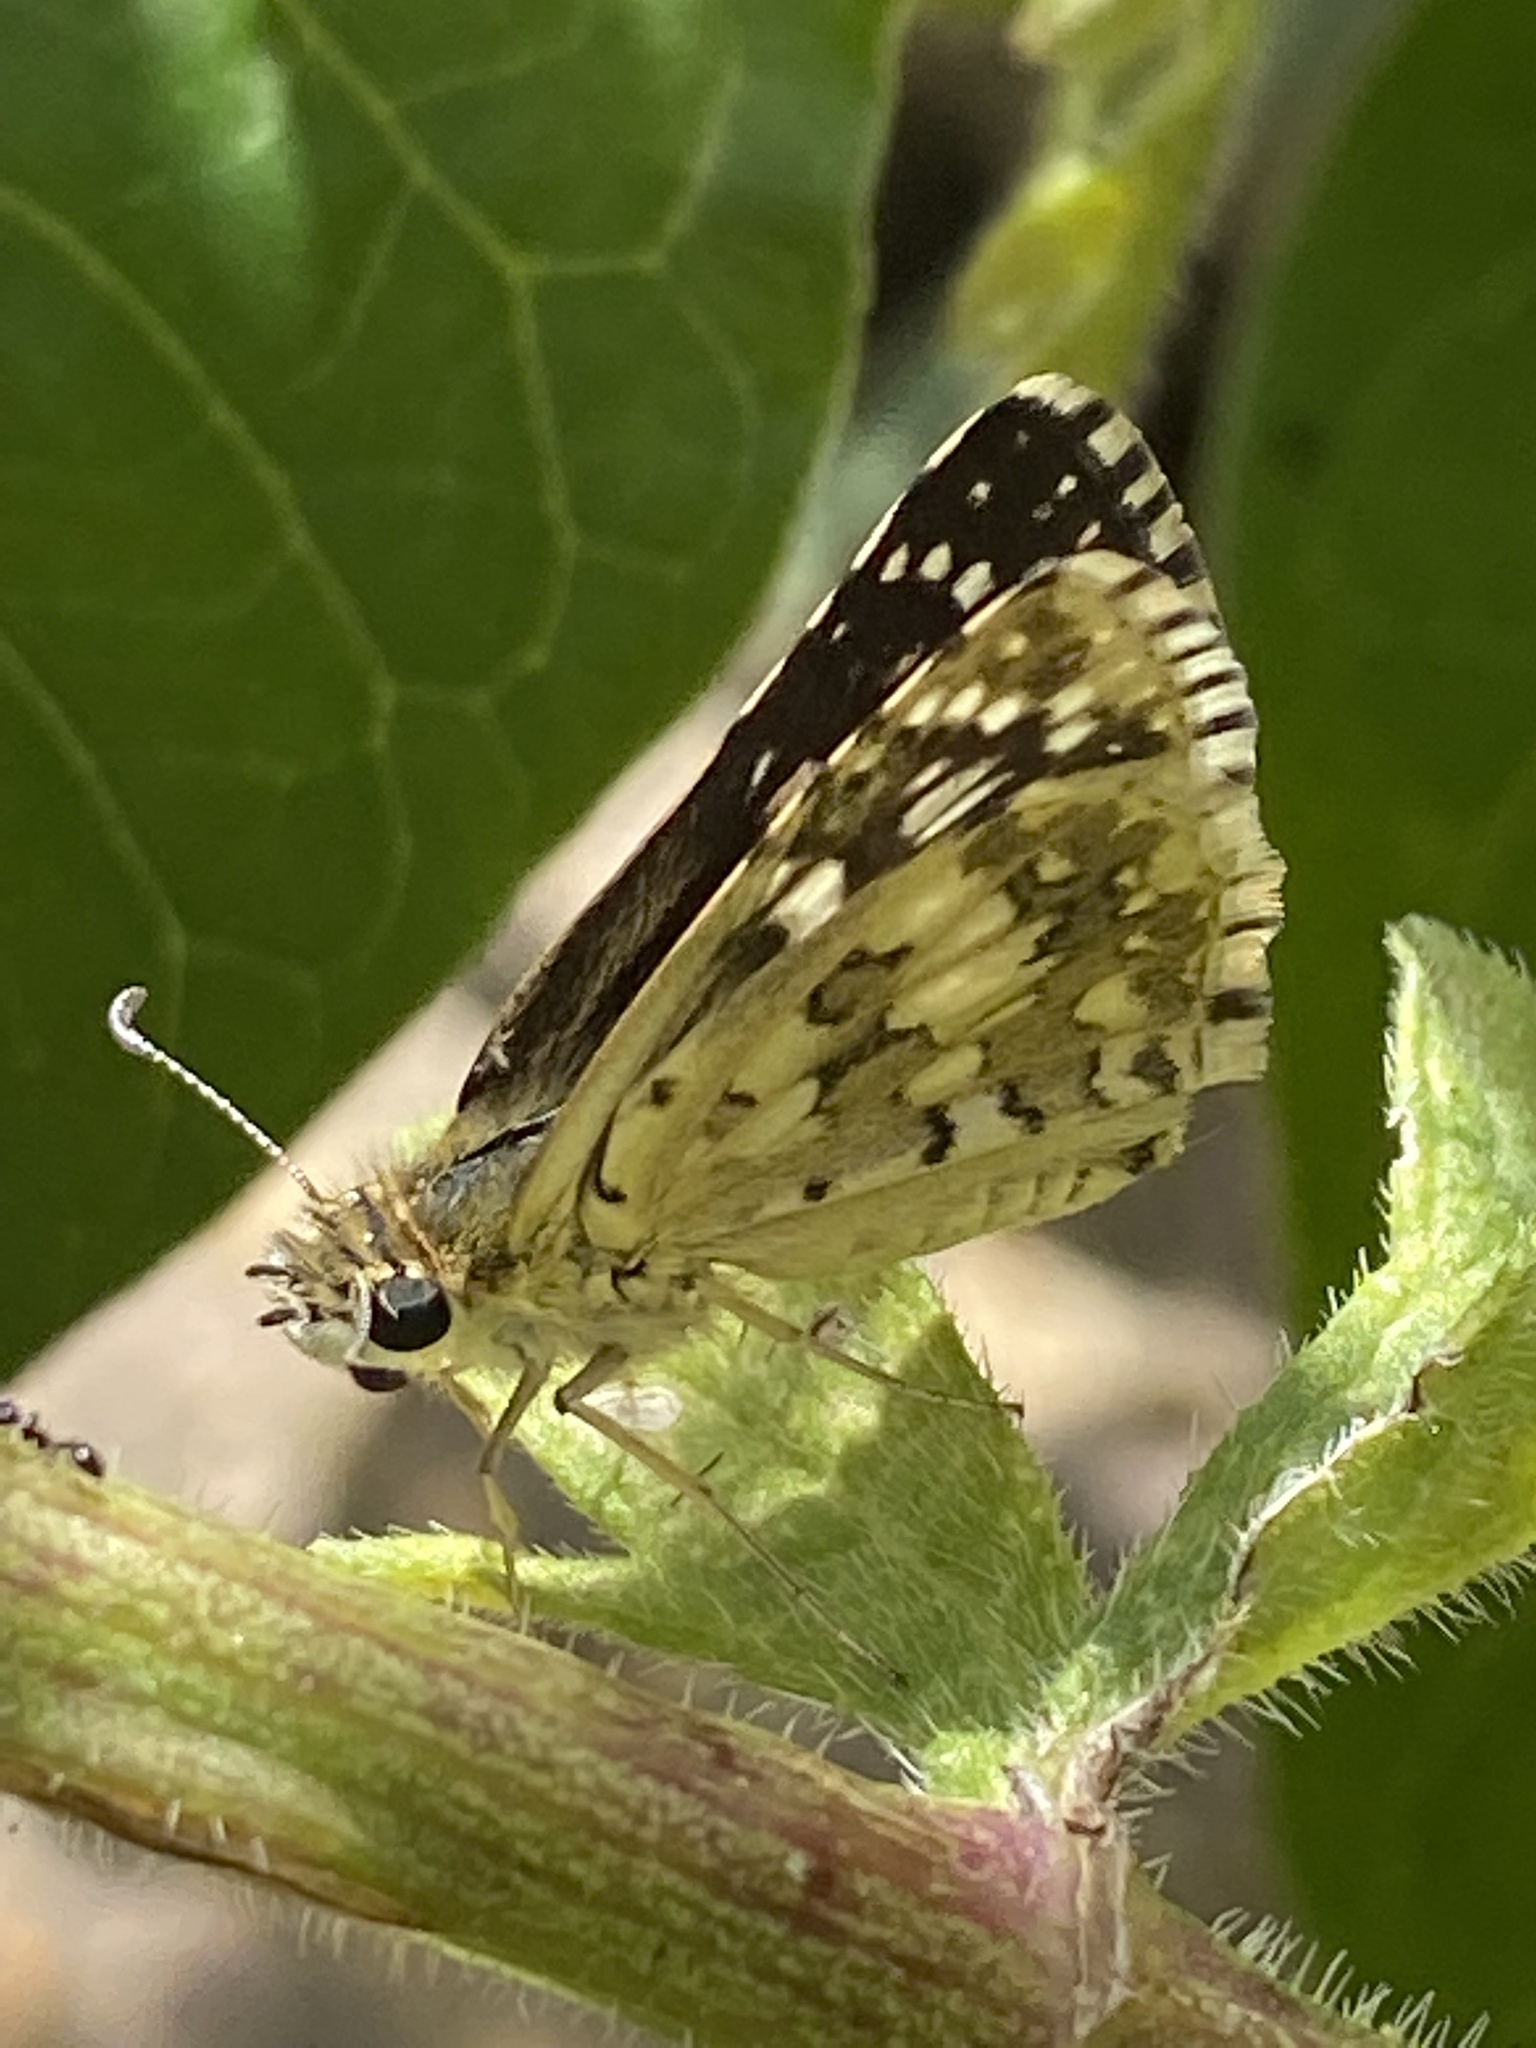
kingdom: Animalia
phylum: Arthropoda
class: Insecta
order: Lepidoptera
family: Hesperiidae
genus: Burnsius
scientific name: Burnsius communis
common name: Common checkered-skipper
